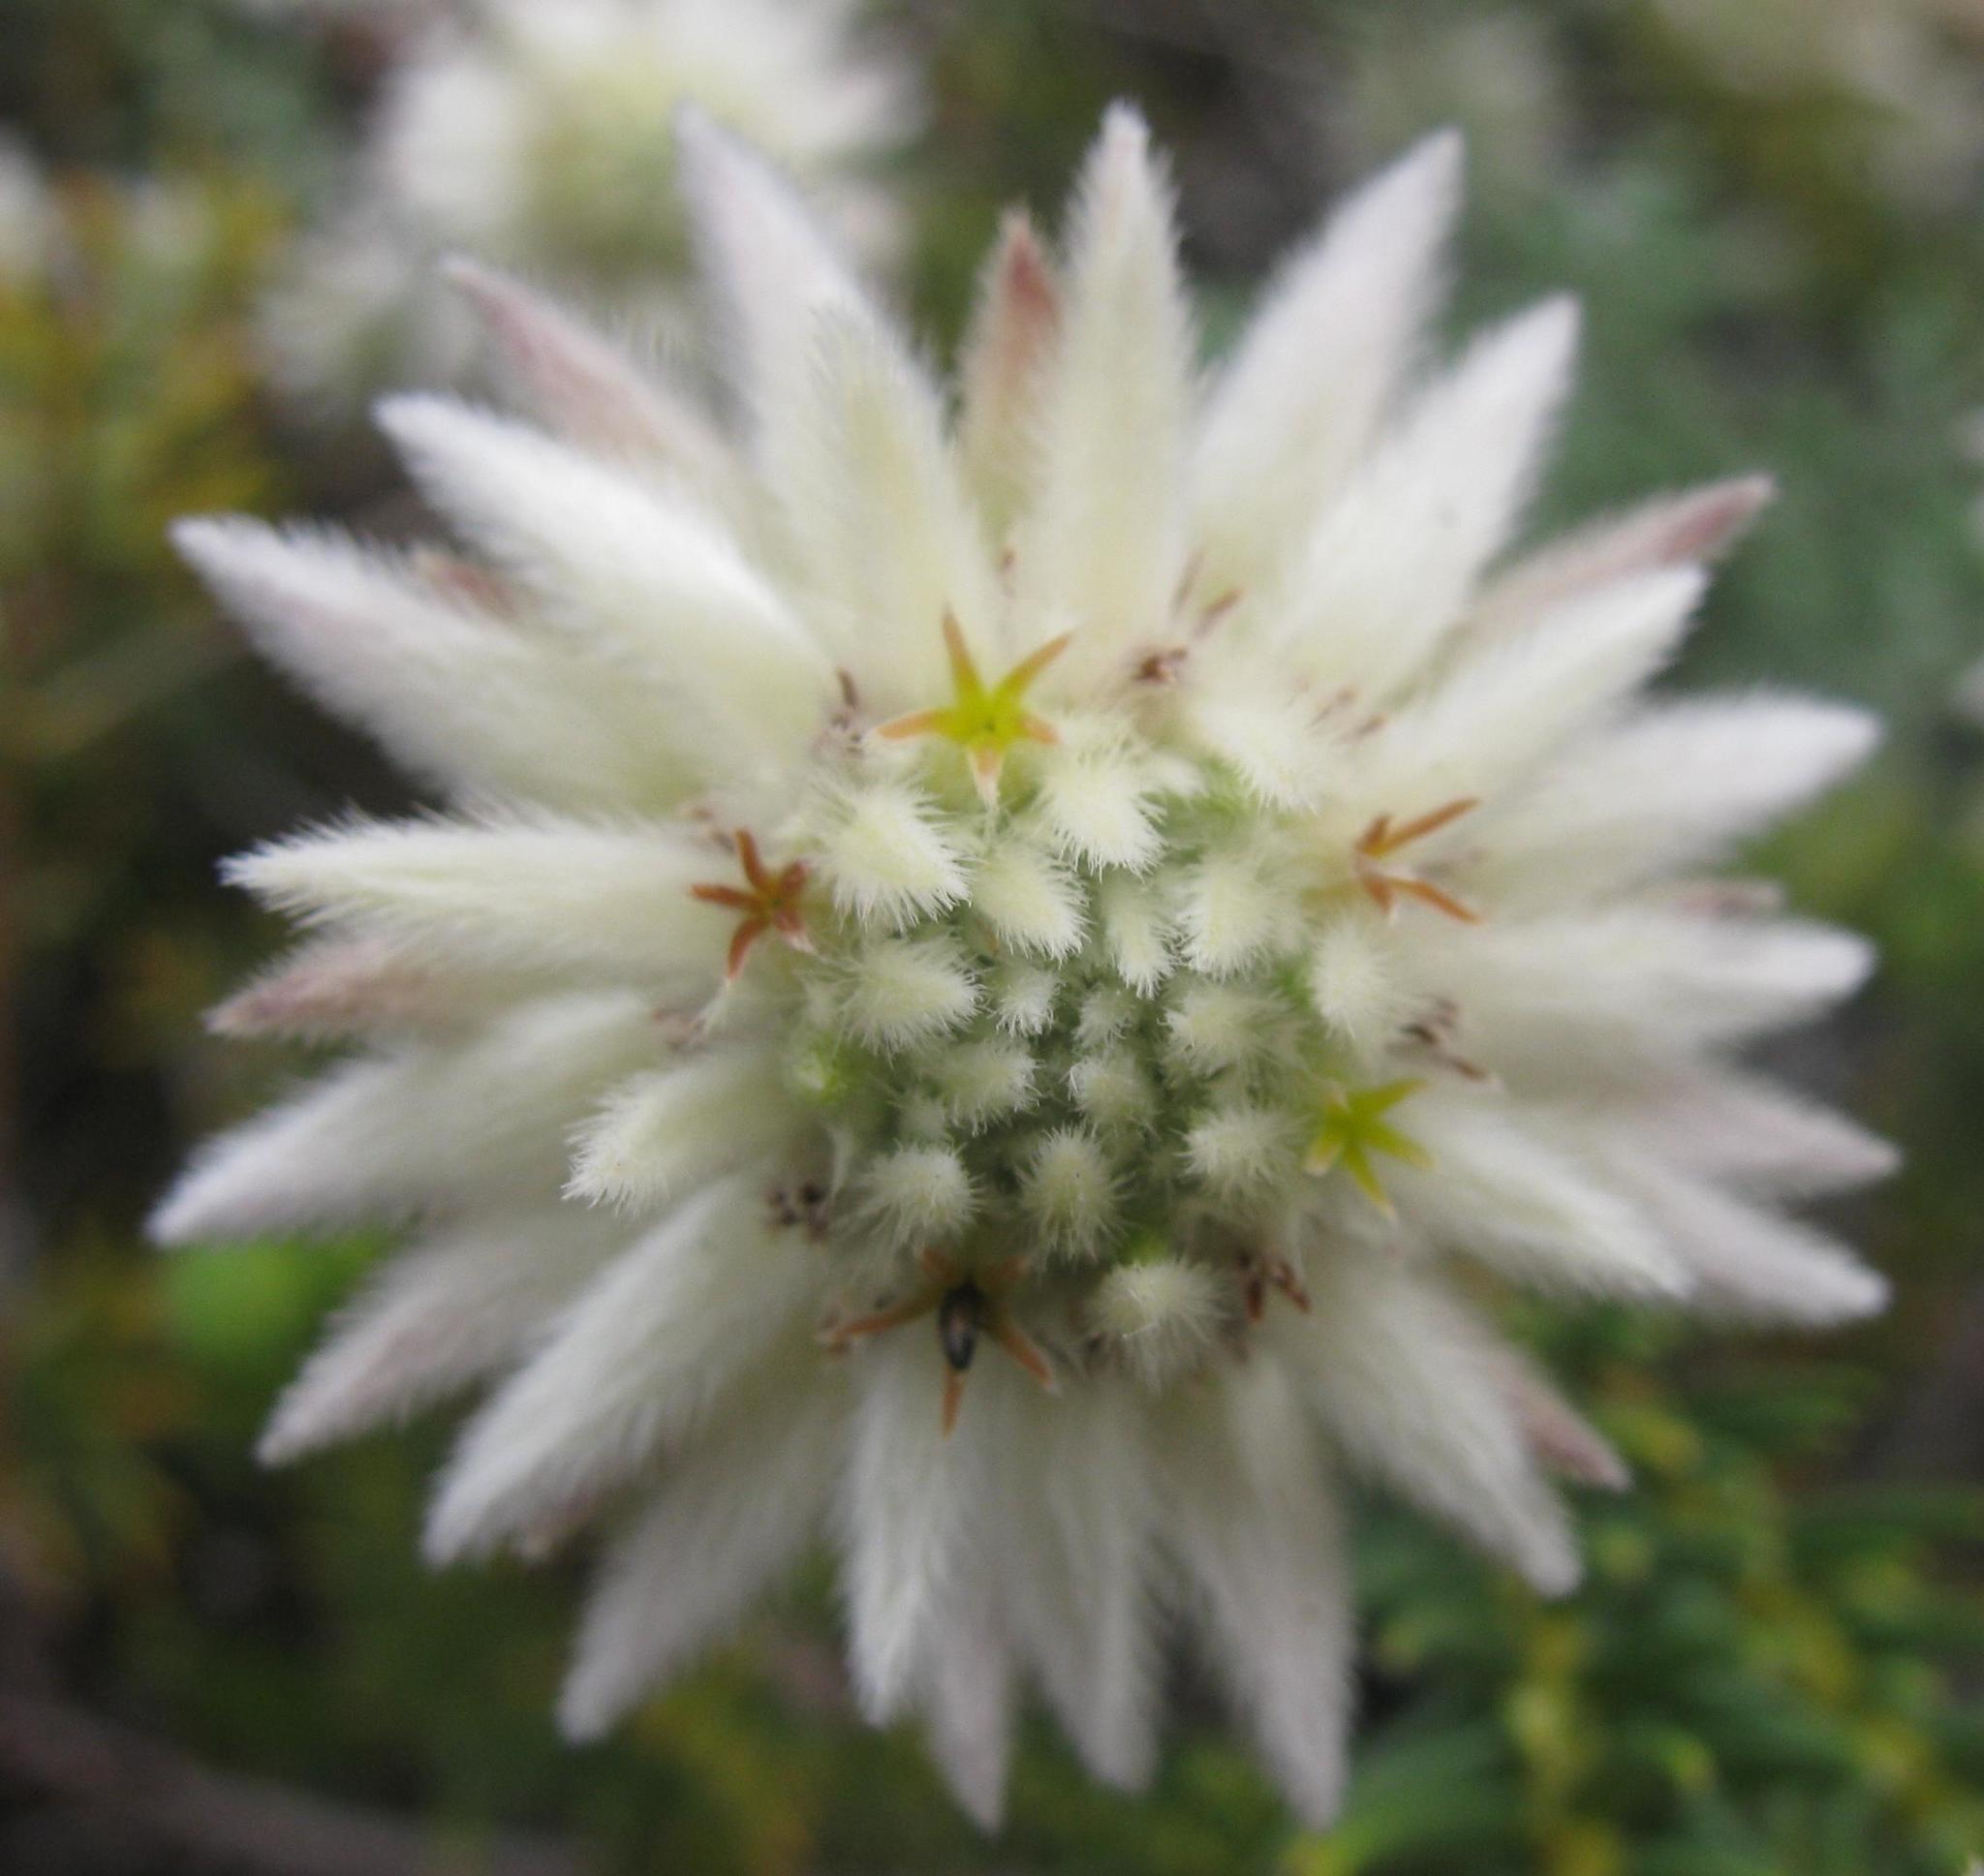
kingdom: Plantae
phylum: Tracheophyta
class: Magnoliopsida
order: Rosales
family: Rhamnaceae
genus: Phylica
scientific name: Phylica dodii
